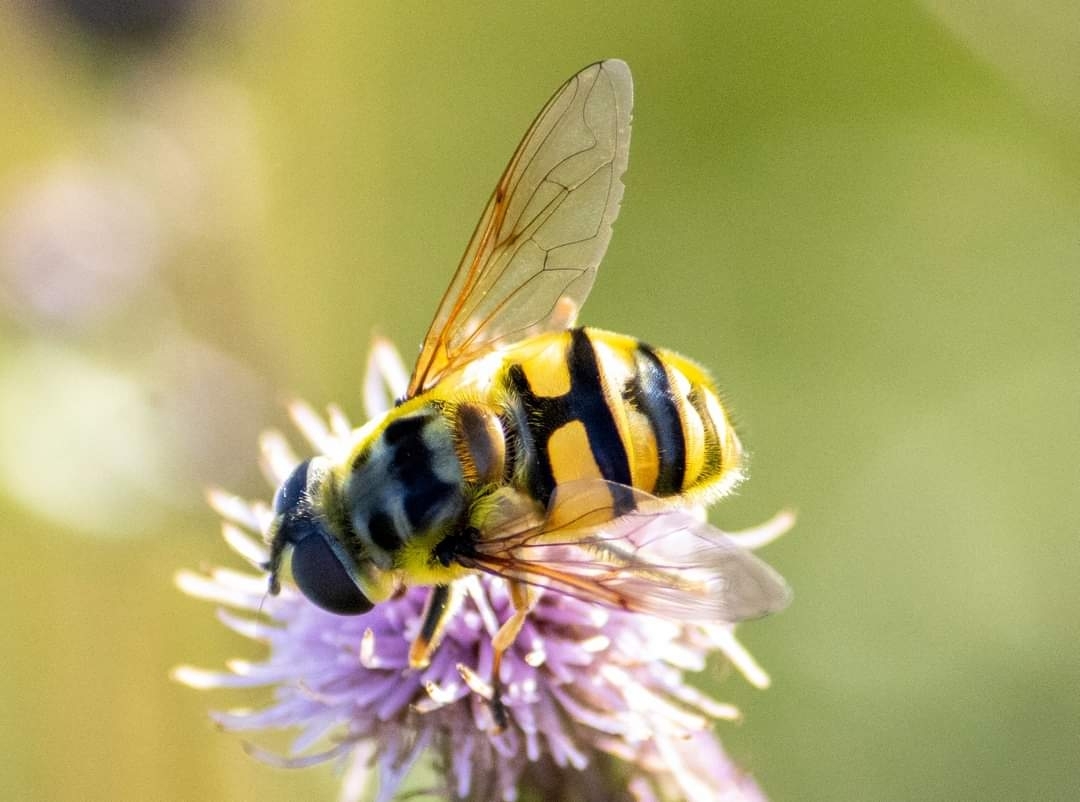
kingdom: Animalia
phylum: Arthropoda
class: Insecta
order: Diptera
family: Syrphidae
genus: Myathropa
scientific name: Myathropa florea
